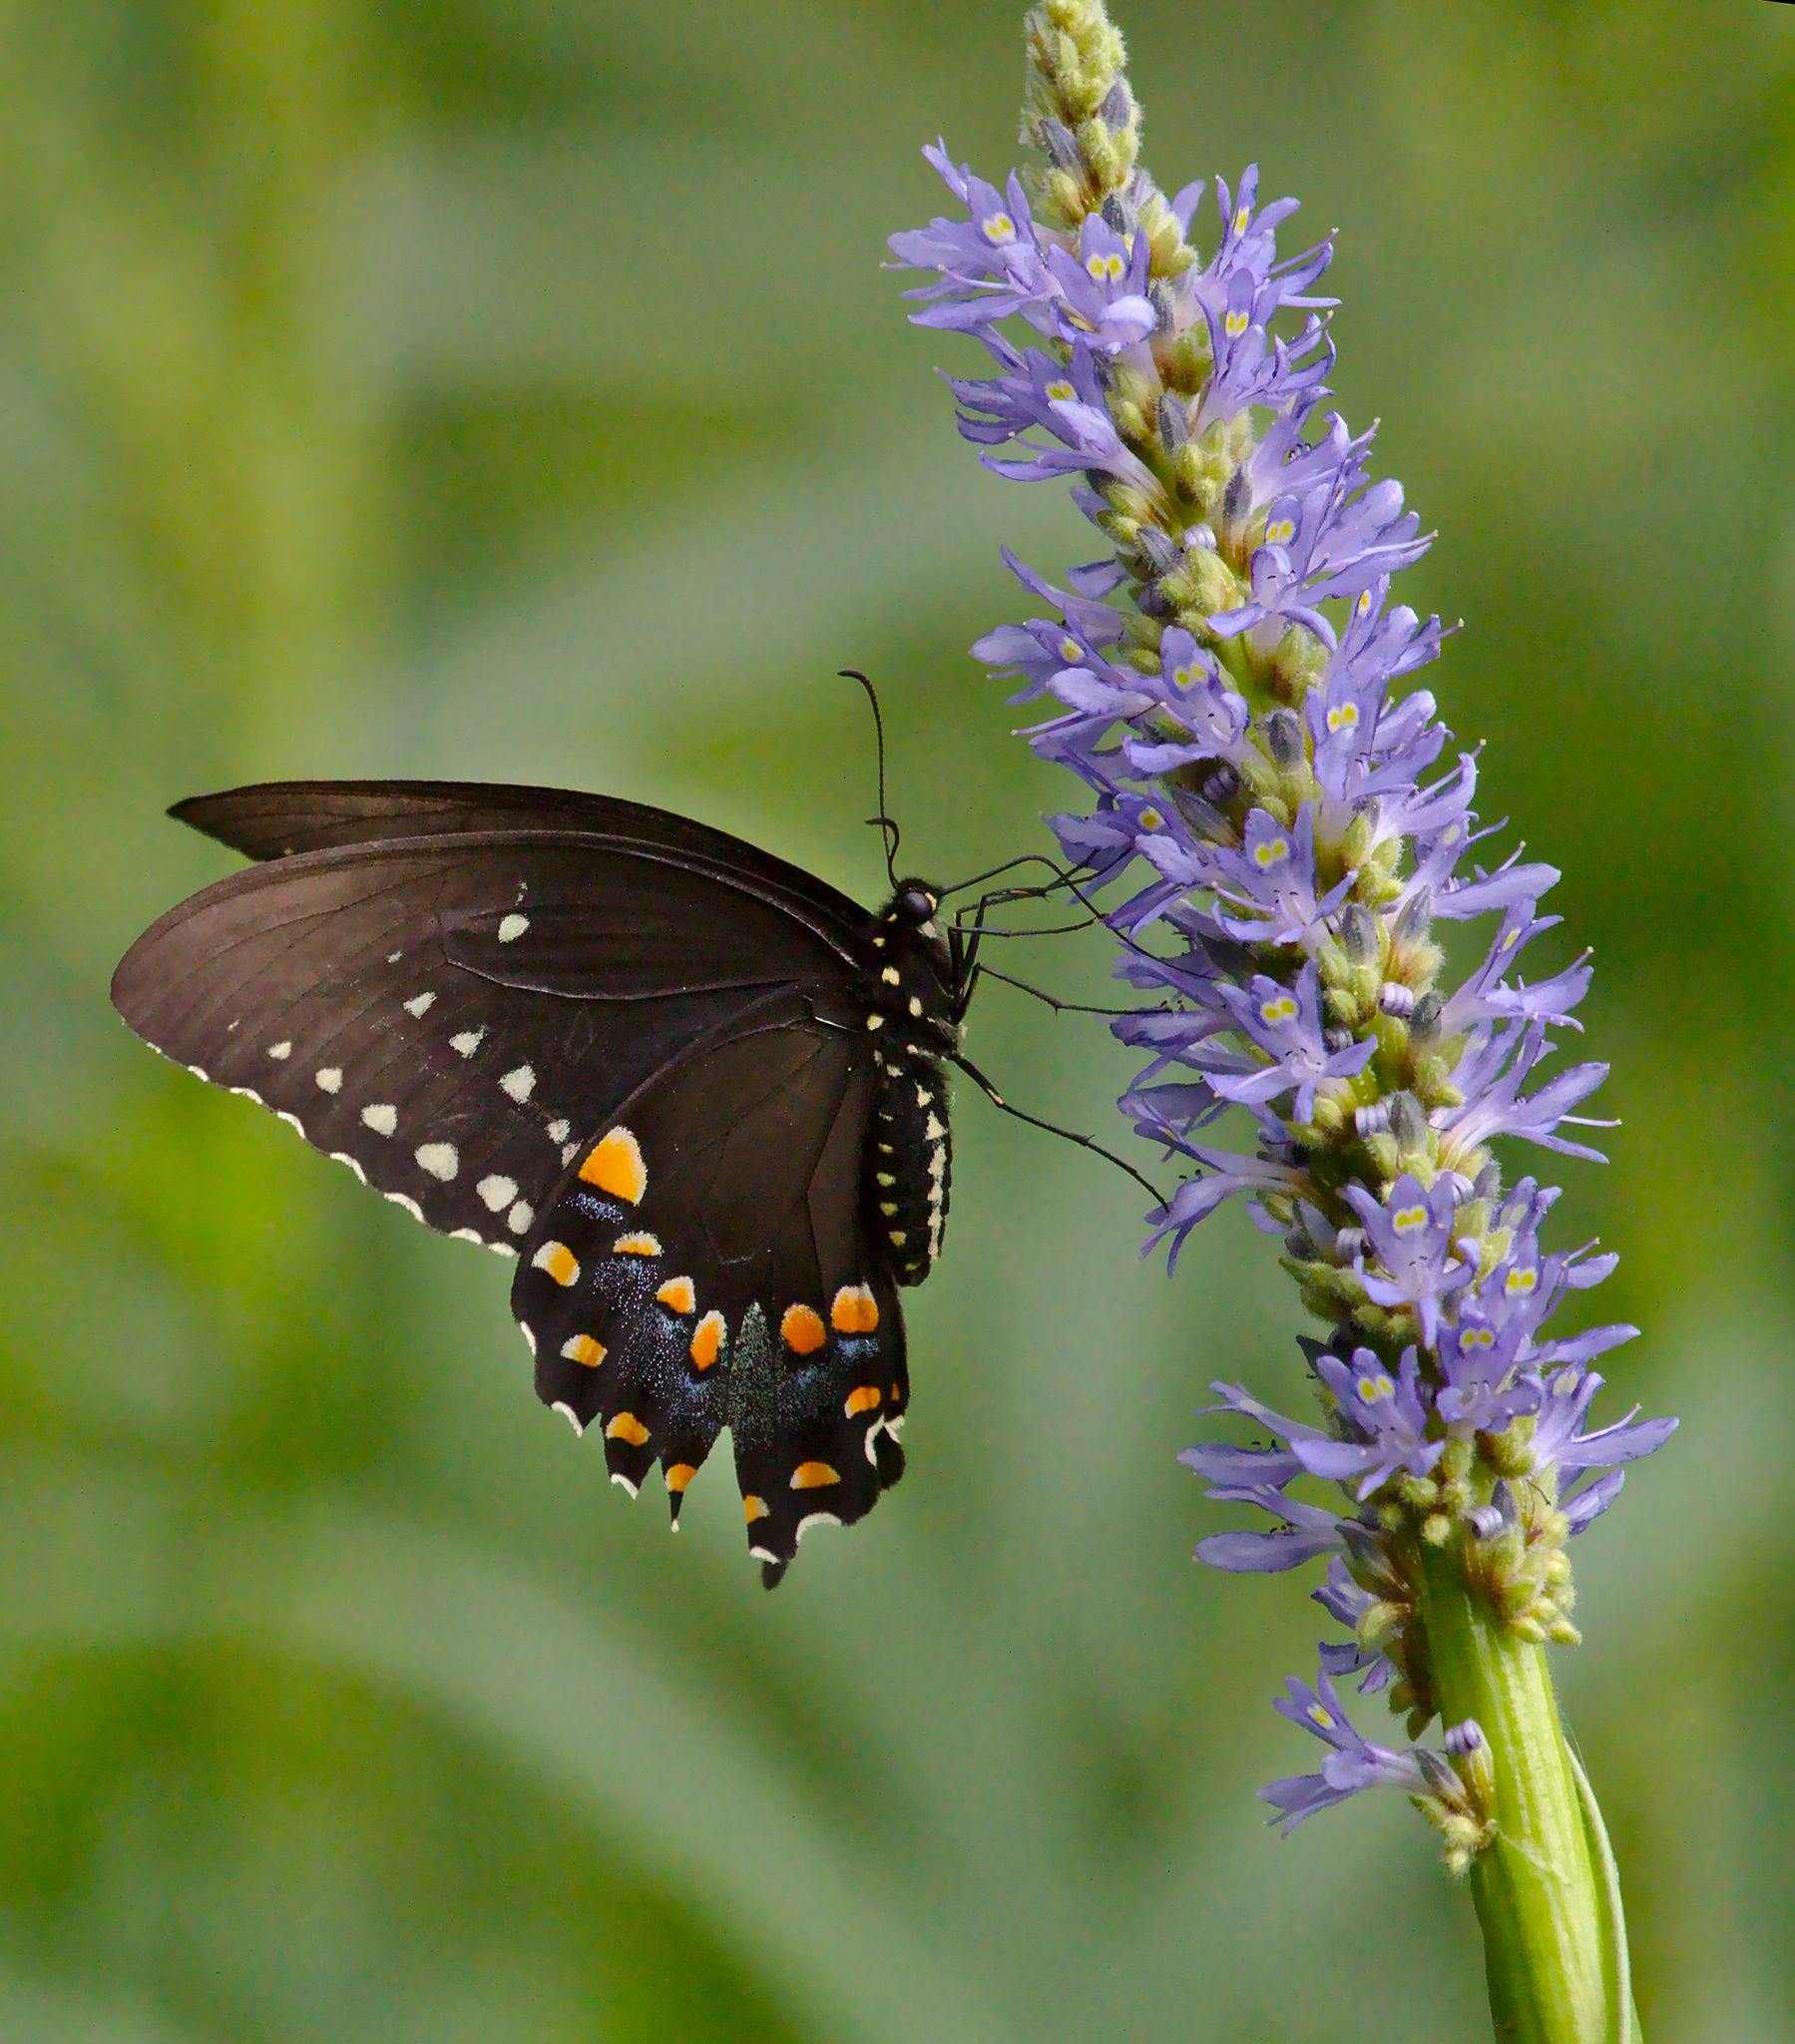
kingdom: Animalia
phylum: Arthropoda
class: Insecta
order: Lepidoptera
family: Papilionidae
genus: Papilio
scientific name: Papilio troilus
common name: Spicebush swallowtail
